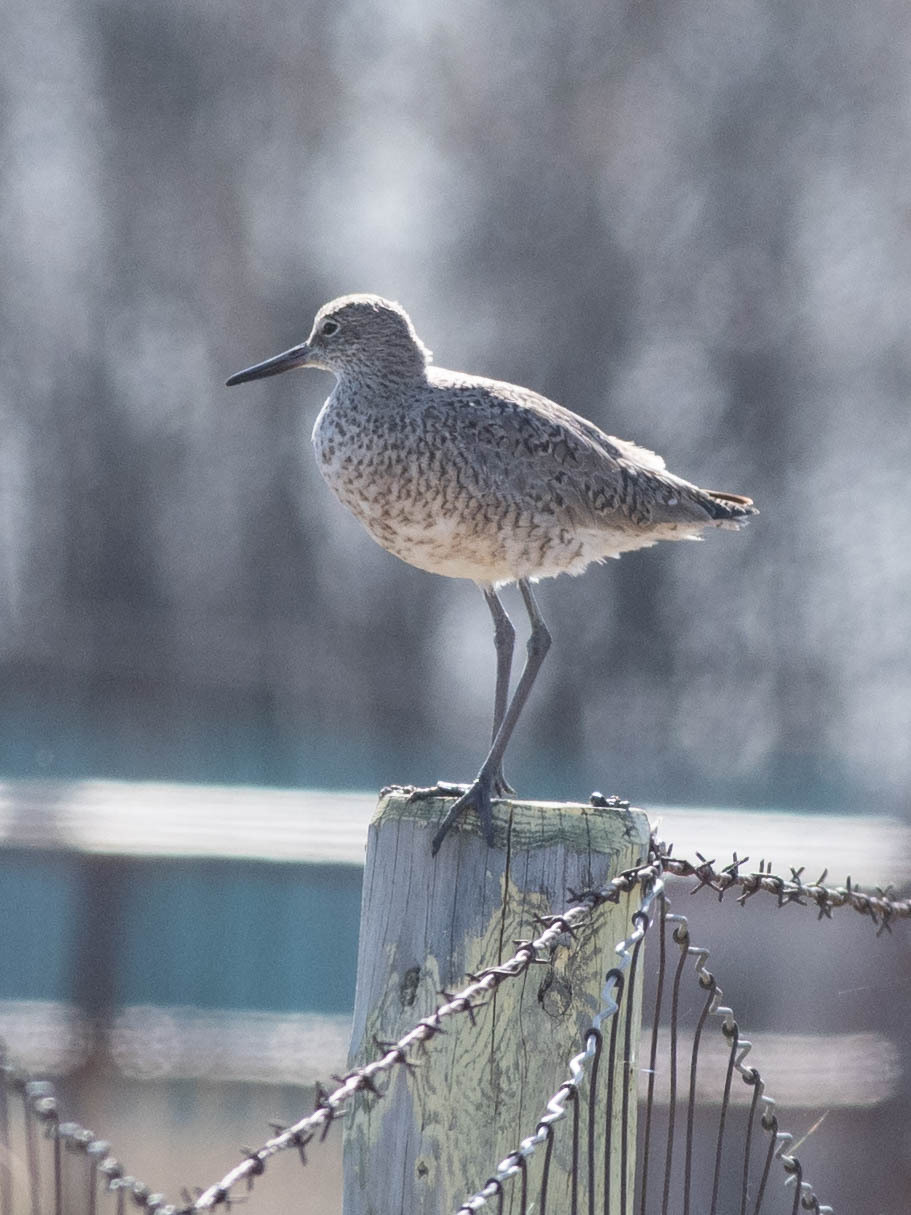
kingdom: Animalia
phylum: Chordata
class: Aves
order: Charadriiformes
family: Scolopacidae
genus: Tringa
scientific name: Tringa semipalmata
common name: Willet
